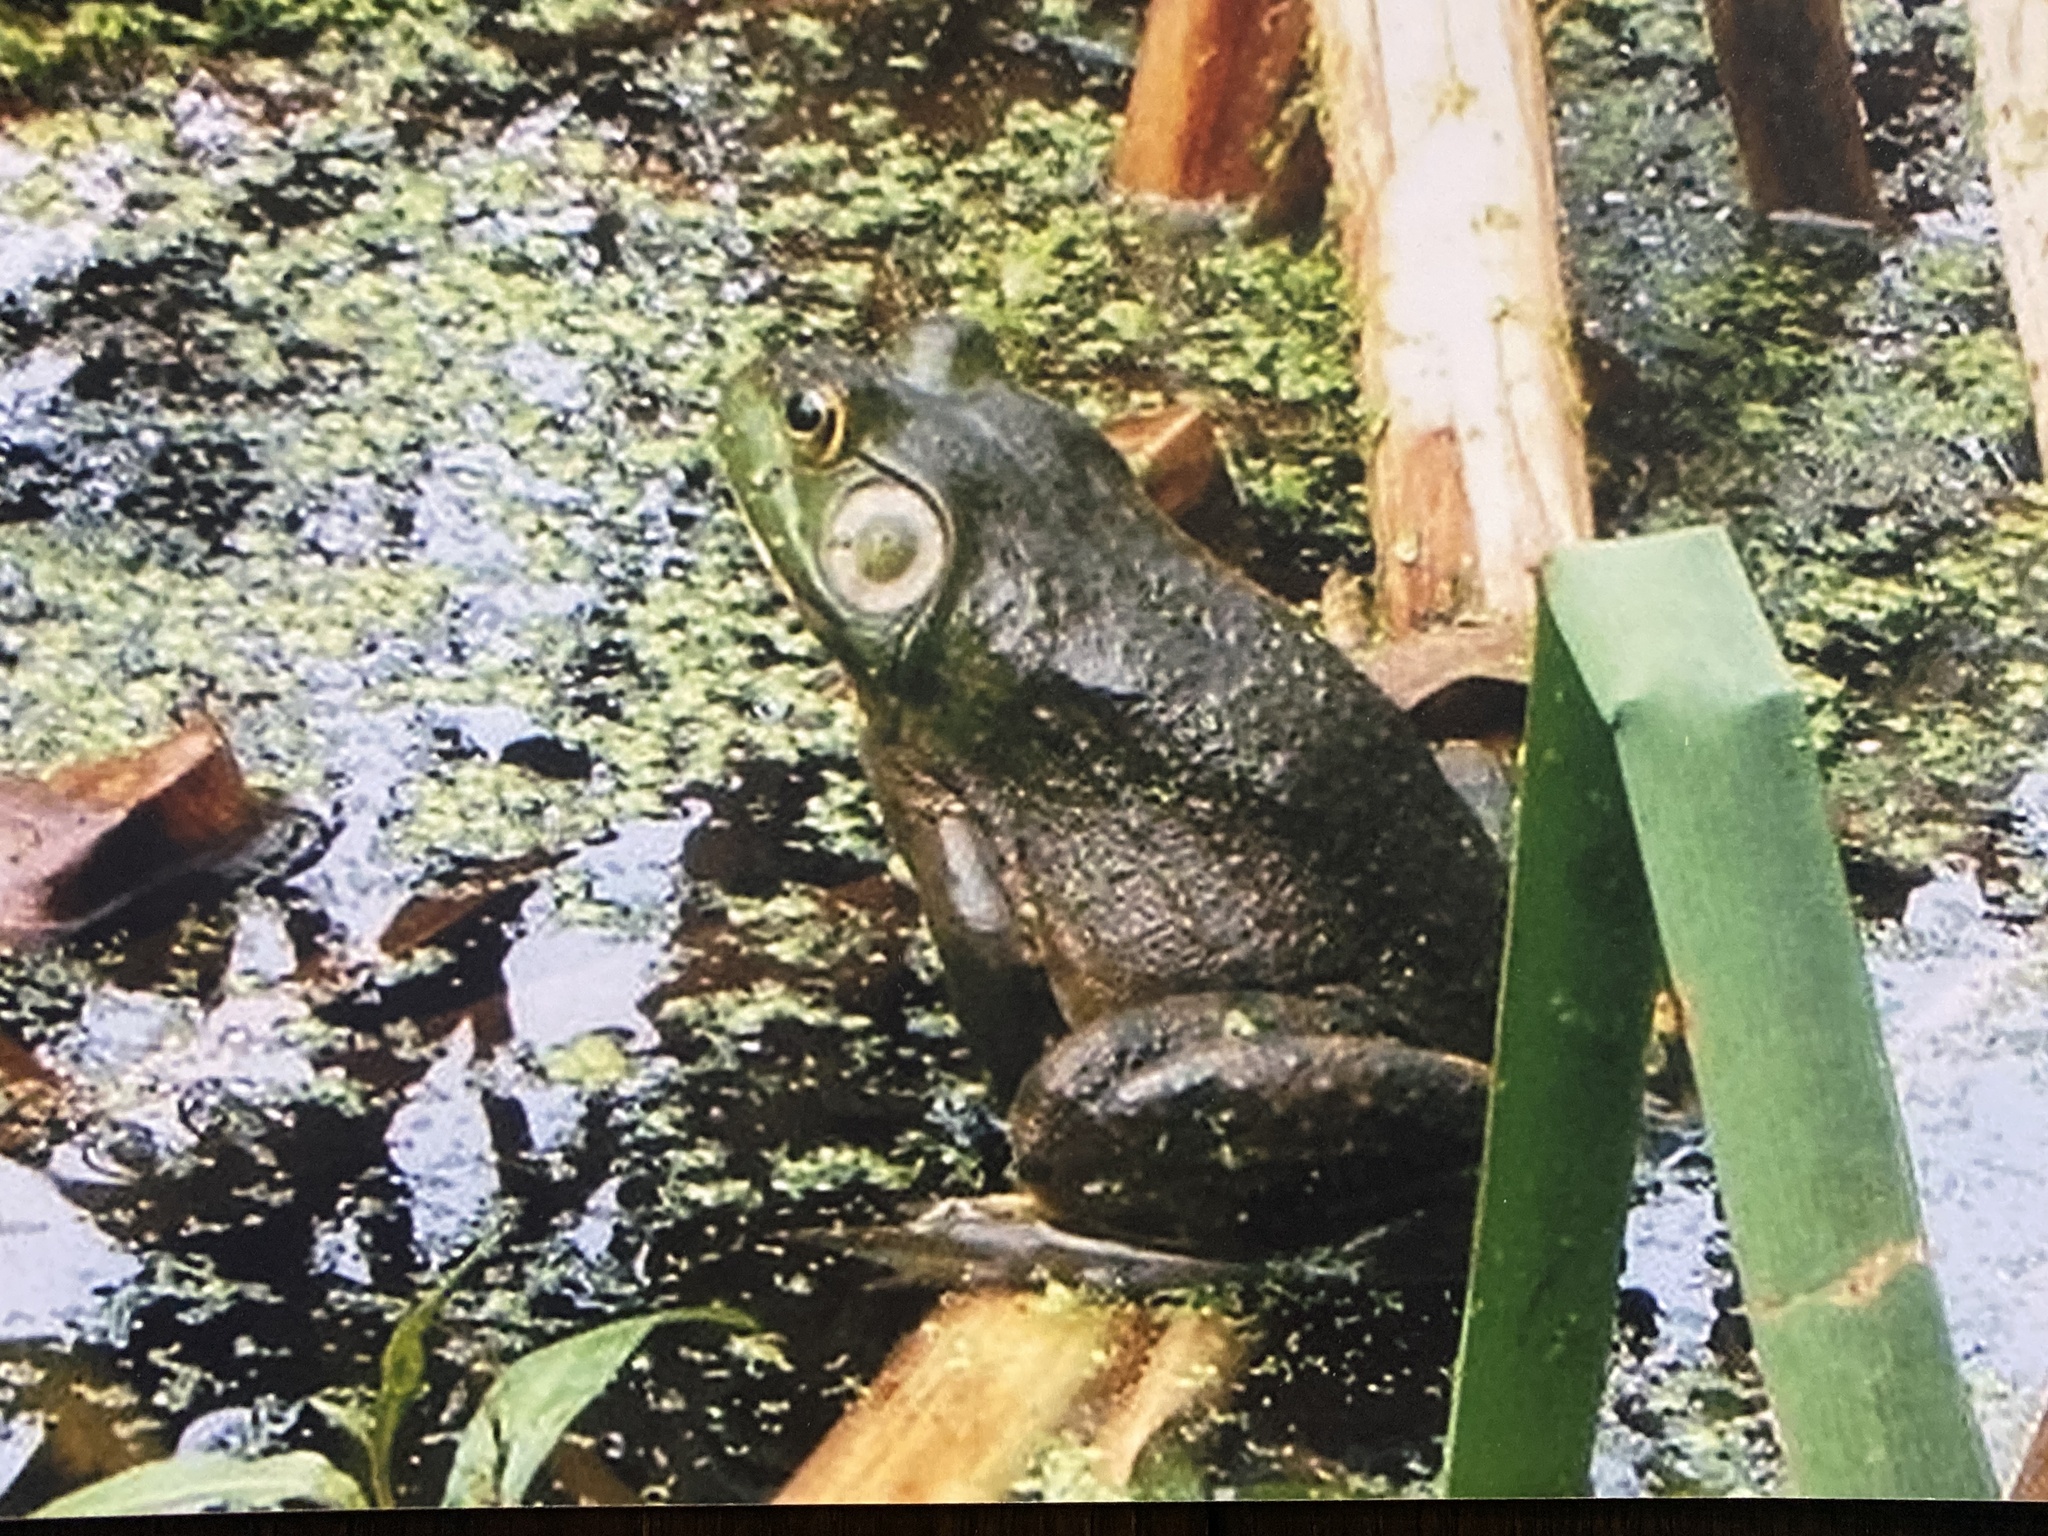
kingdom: Animalia
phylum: Chordata
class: Amphibia
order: Anura
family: Ranidae
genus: Lithobates
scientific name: Lithobates catesbeianus
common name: American bullfrog
